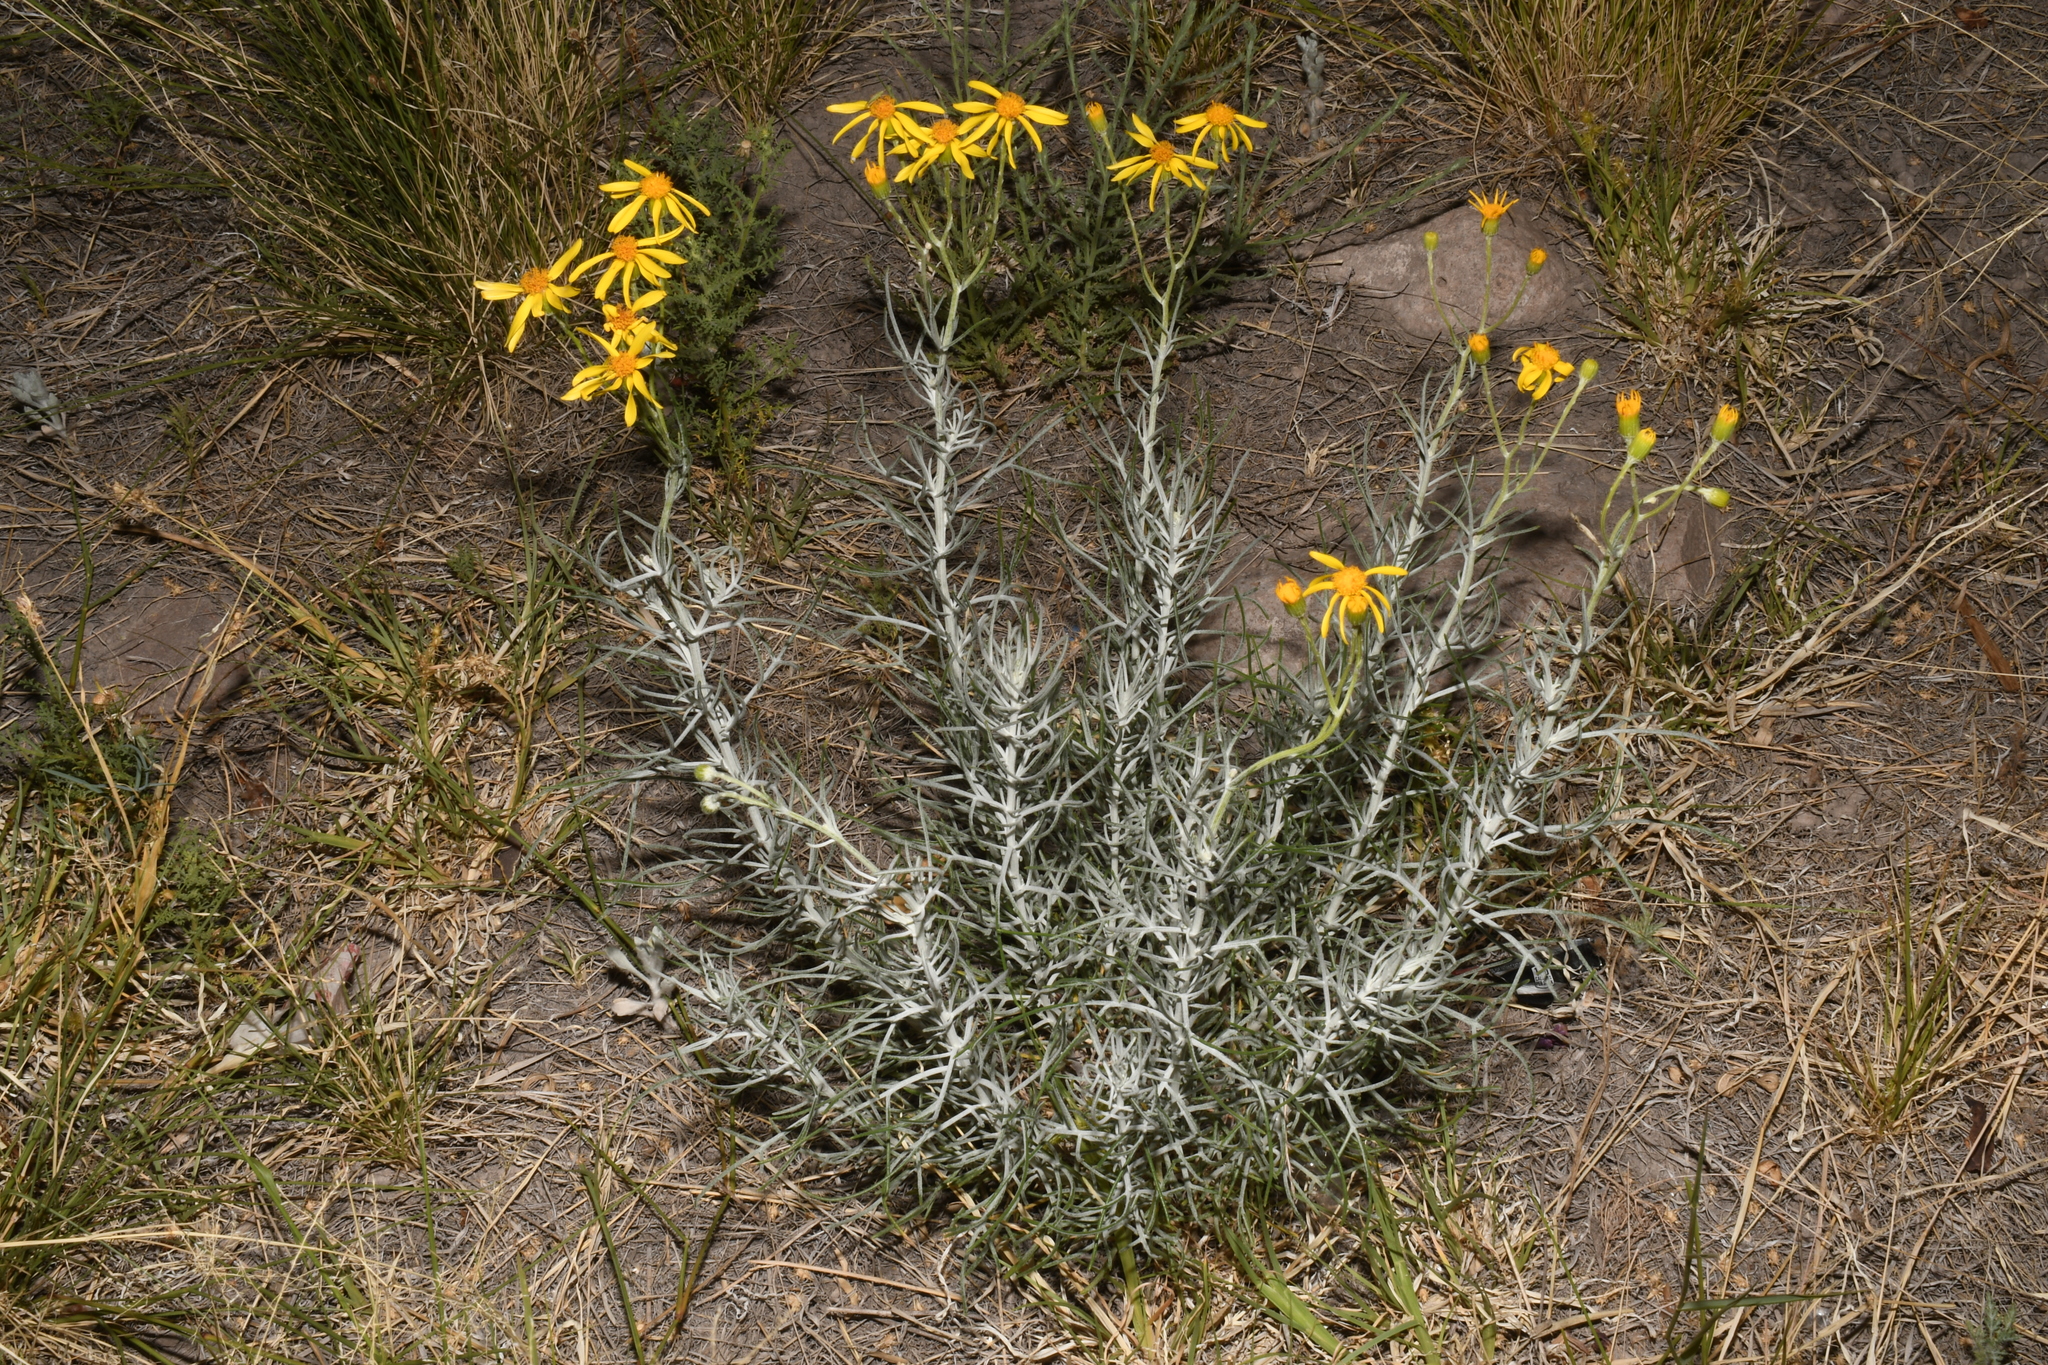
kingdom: Plantae
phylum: Tracheophyta
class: Magnoliopsida
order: Asterales
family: Asteraceae
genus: Senecio
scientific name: Senecio flaccidus
